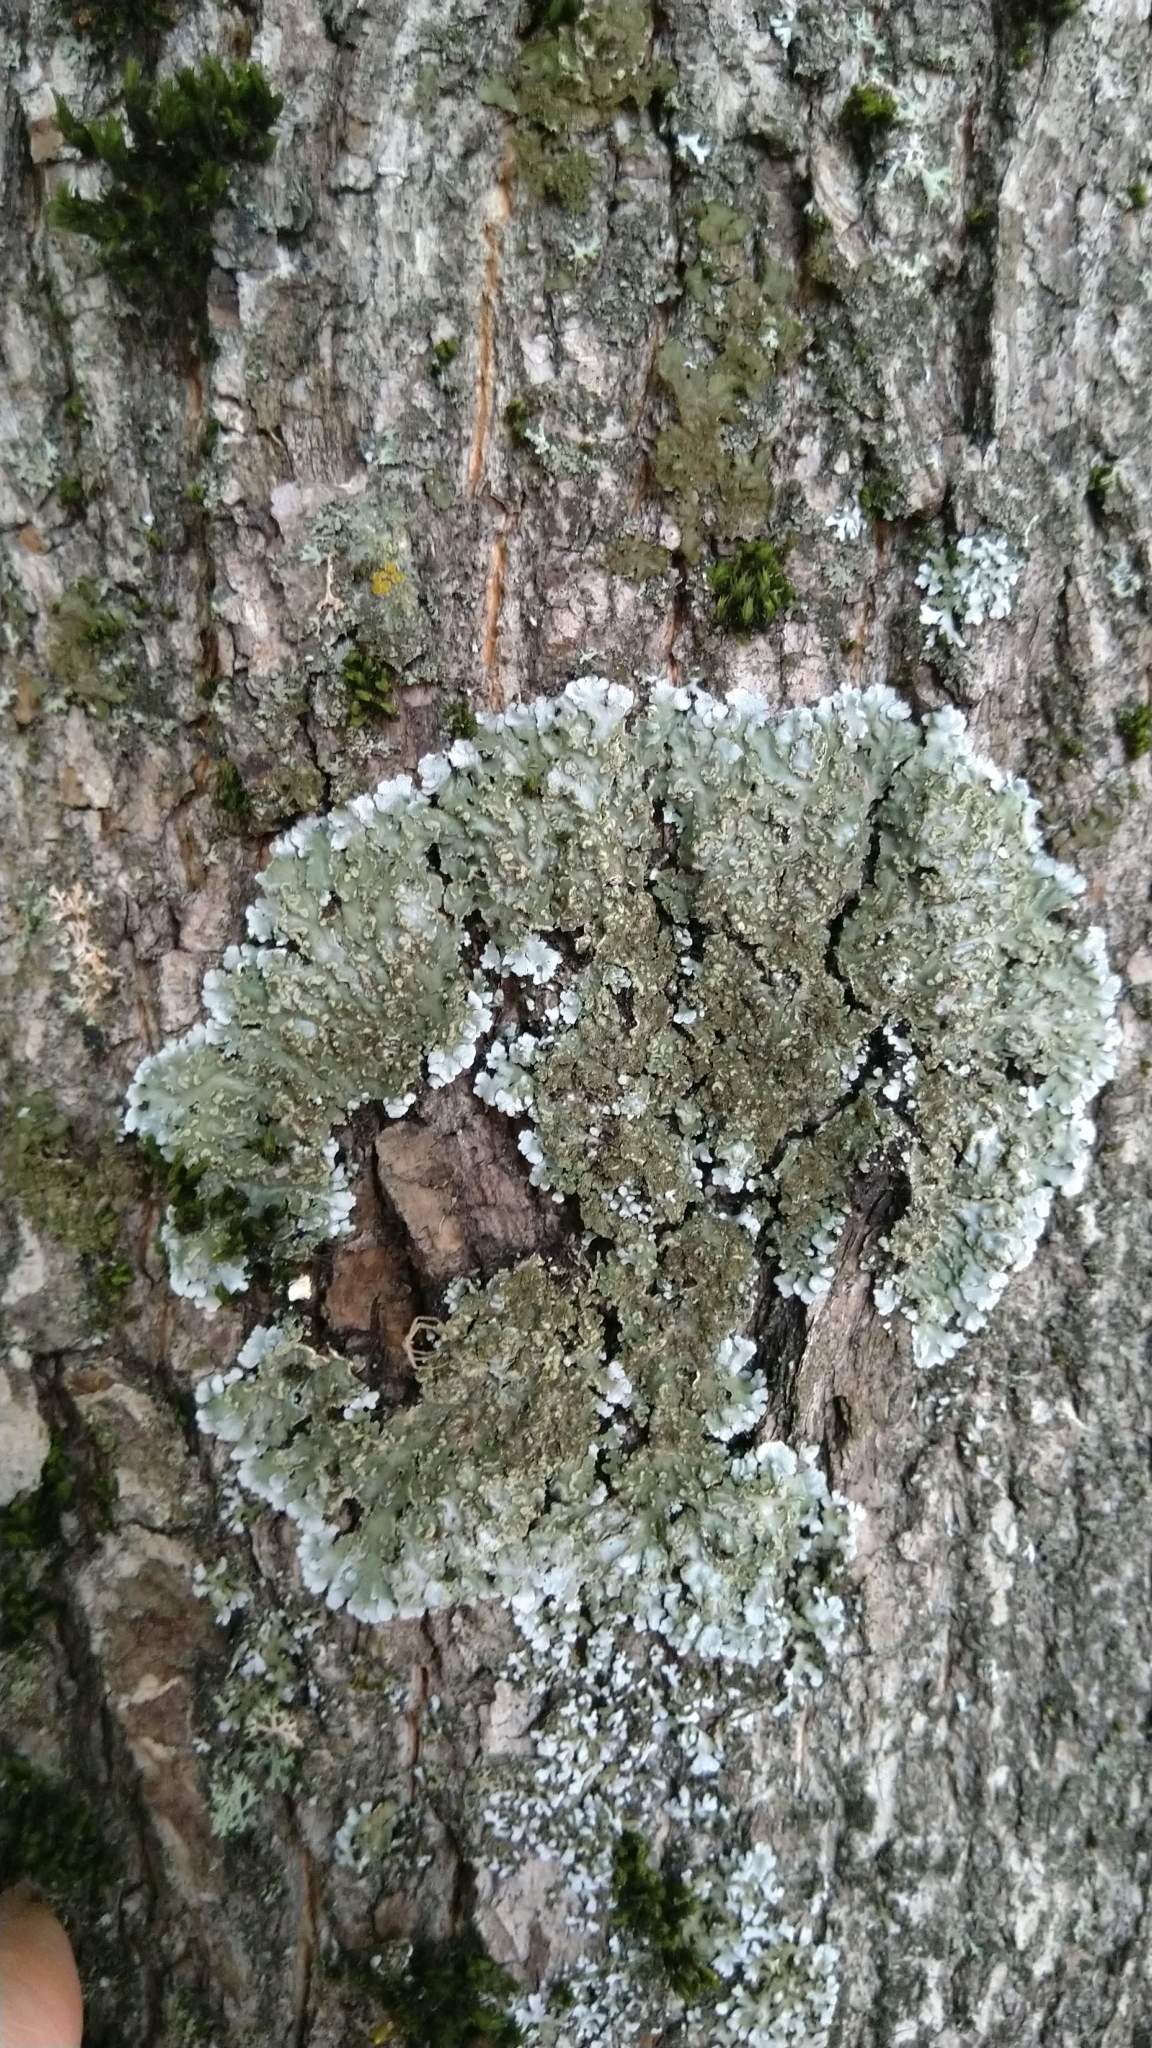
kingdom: Fungi
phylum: Ascomycota
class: Lecanoromycetes
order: Caliciales
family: Physciaceae
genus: Physconia
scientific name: Physconia enteroxantha
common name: Yellow-edged frost lichen
